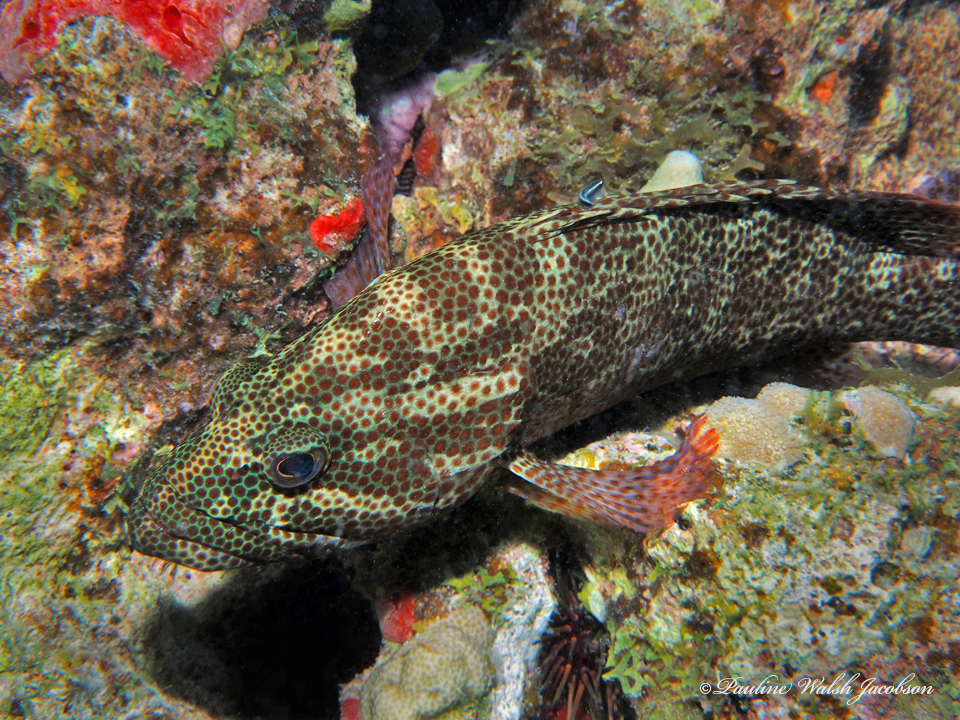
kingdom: Animalia
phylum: Chordata
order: Perciformes
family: Serranidae
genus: Cephalopholis
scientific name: Cephalopholis cruentata
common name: Graysby
